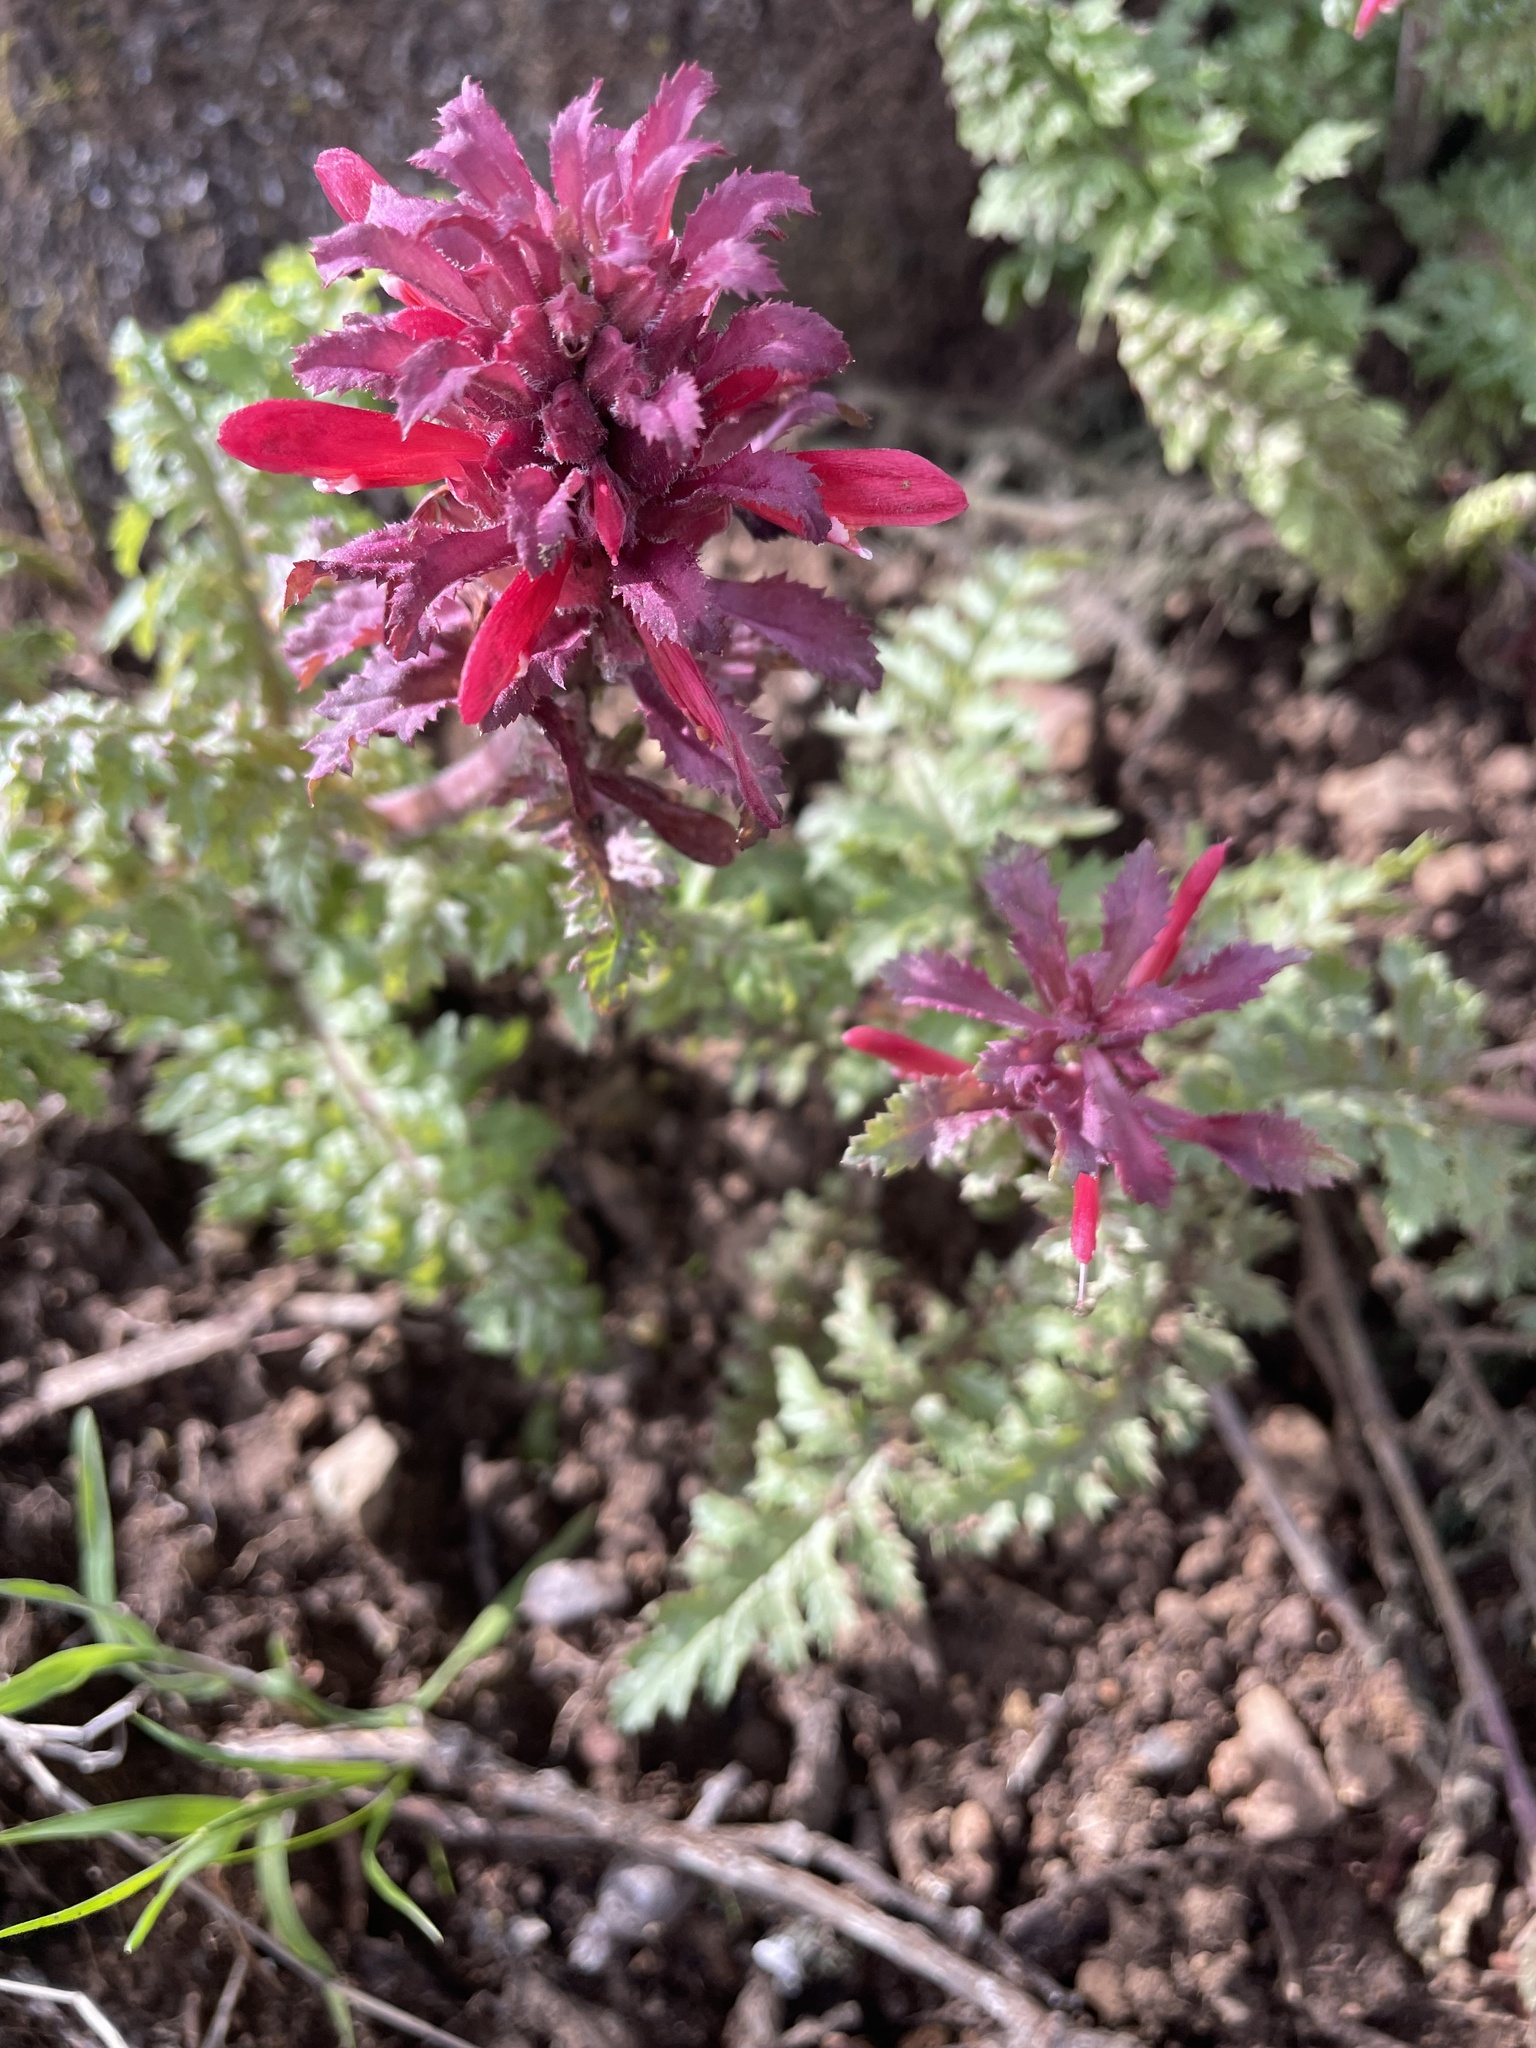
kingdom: Plantae
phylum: Tracheophyta
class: Magnoliopsida
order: Lamiales
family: Orobanchaceae
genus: Pedicularis
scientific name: Pedicularis densiflora
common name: Indian warrior
